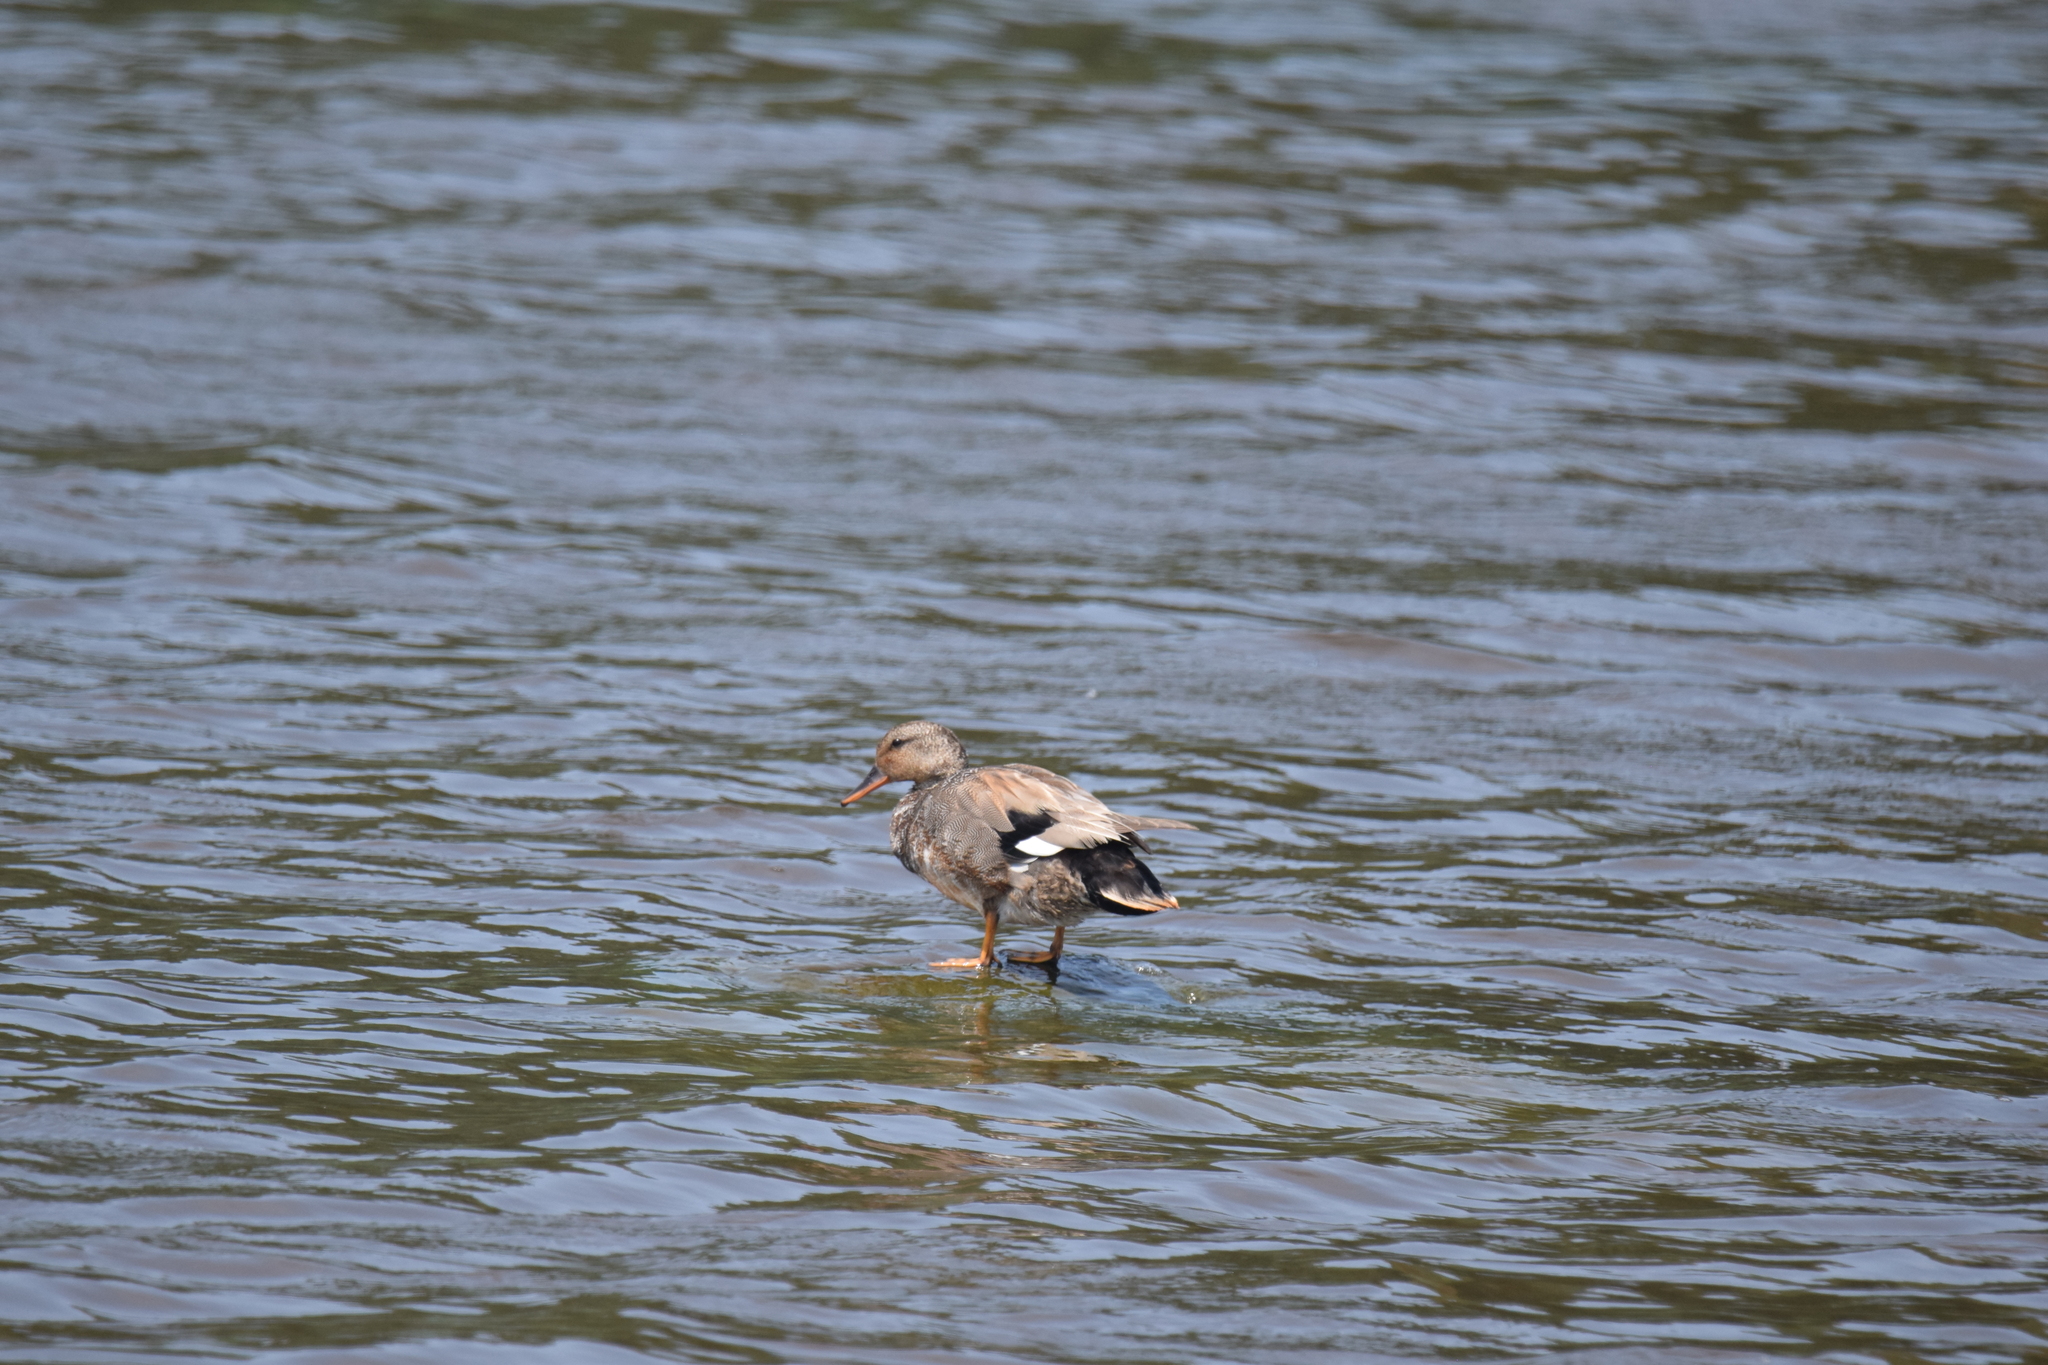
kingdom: Animalia
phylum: Chordata
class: Aves
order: Anseriformes
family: Anatidae
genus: Mareca
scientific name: Mareca strepera
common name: Gadwall
